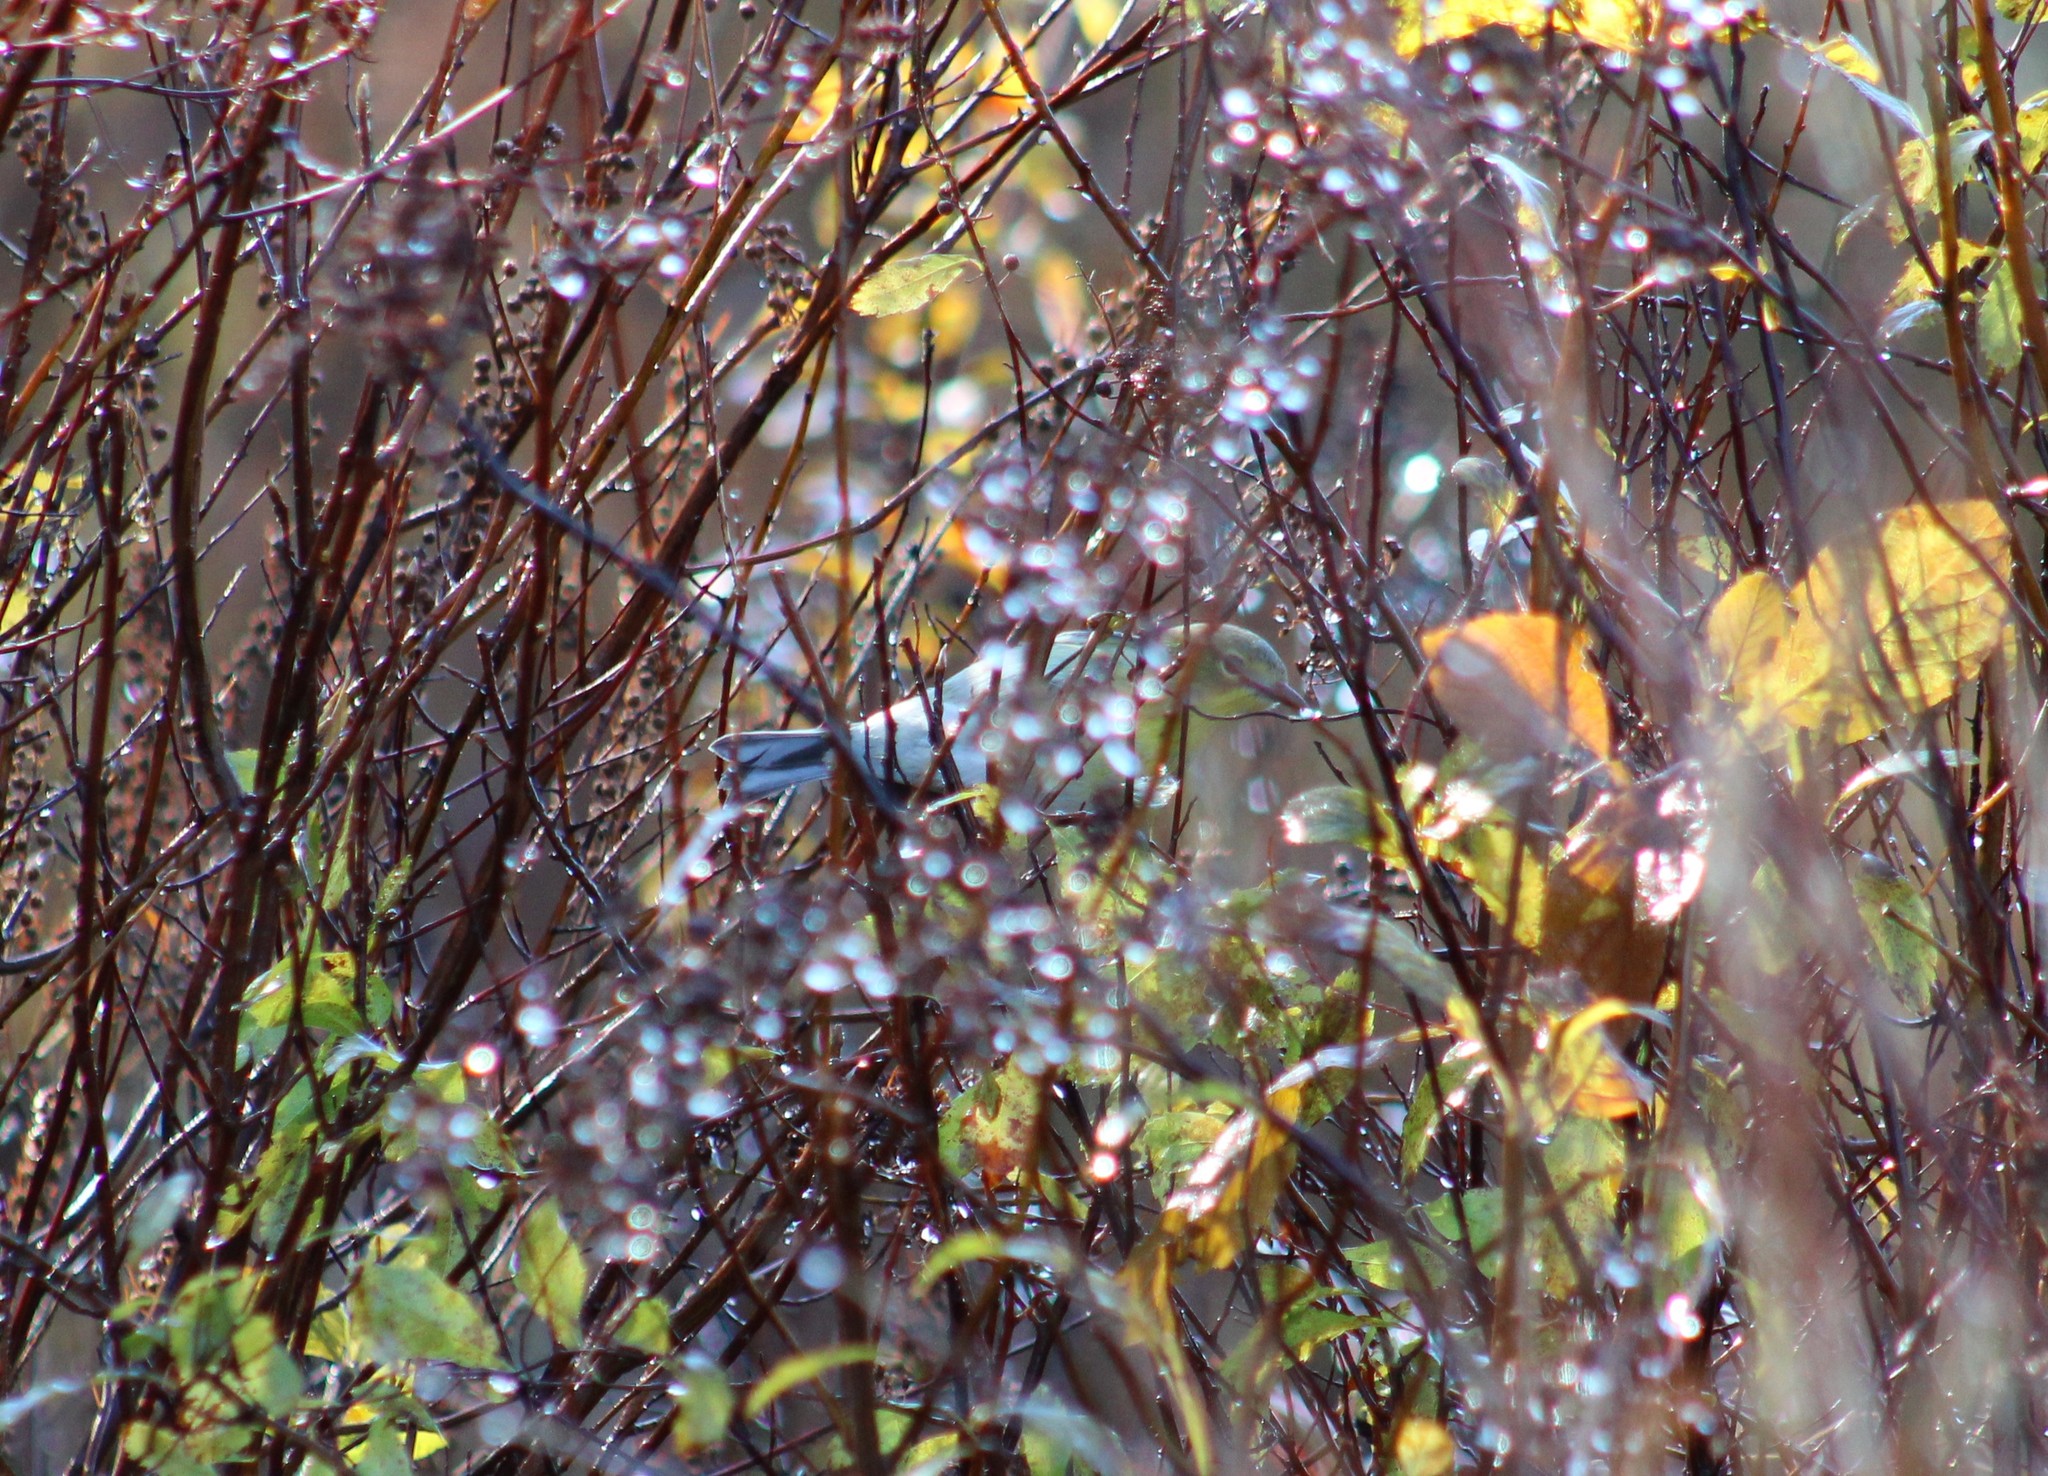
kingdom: Animalia
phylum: Chordata
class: Aves
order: Passeriformes
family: Parulidae
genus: Setophaga
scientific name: Setophaga pinus
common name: Pine warbler
